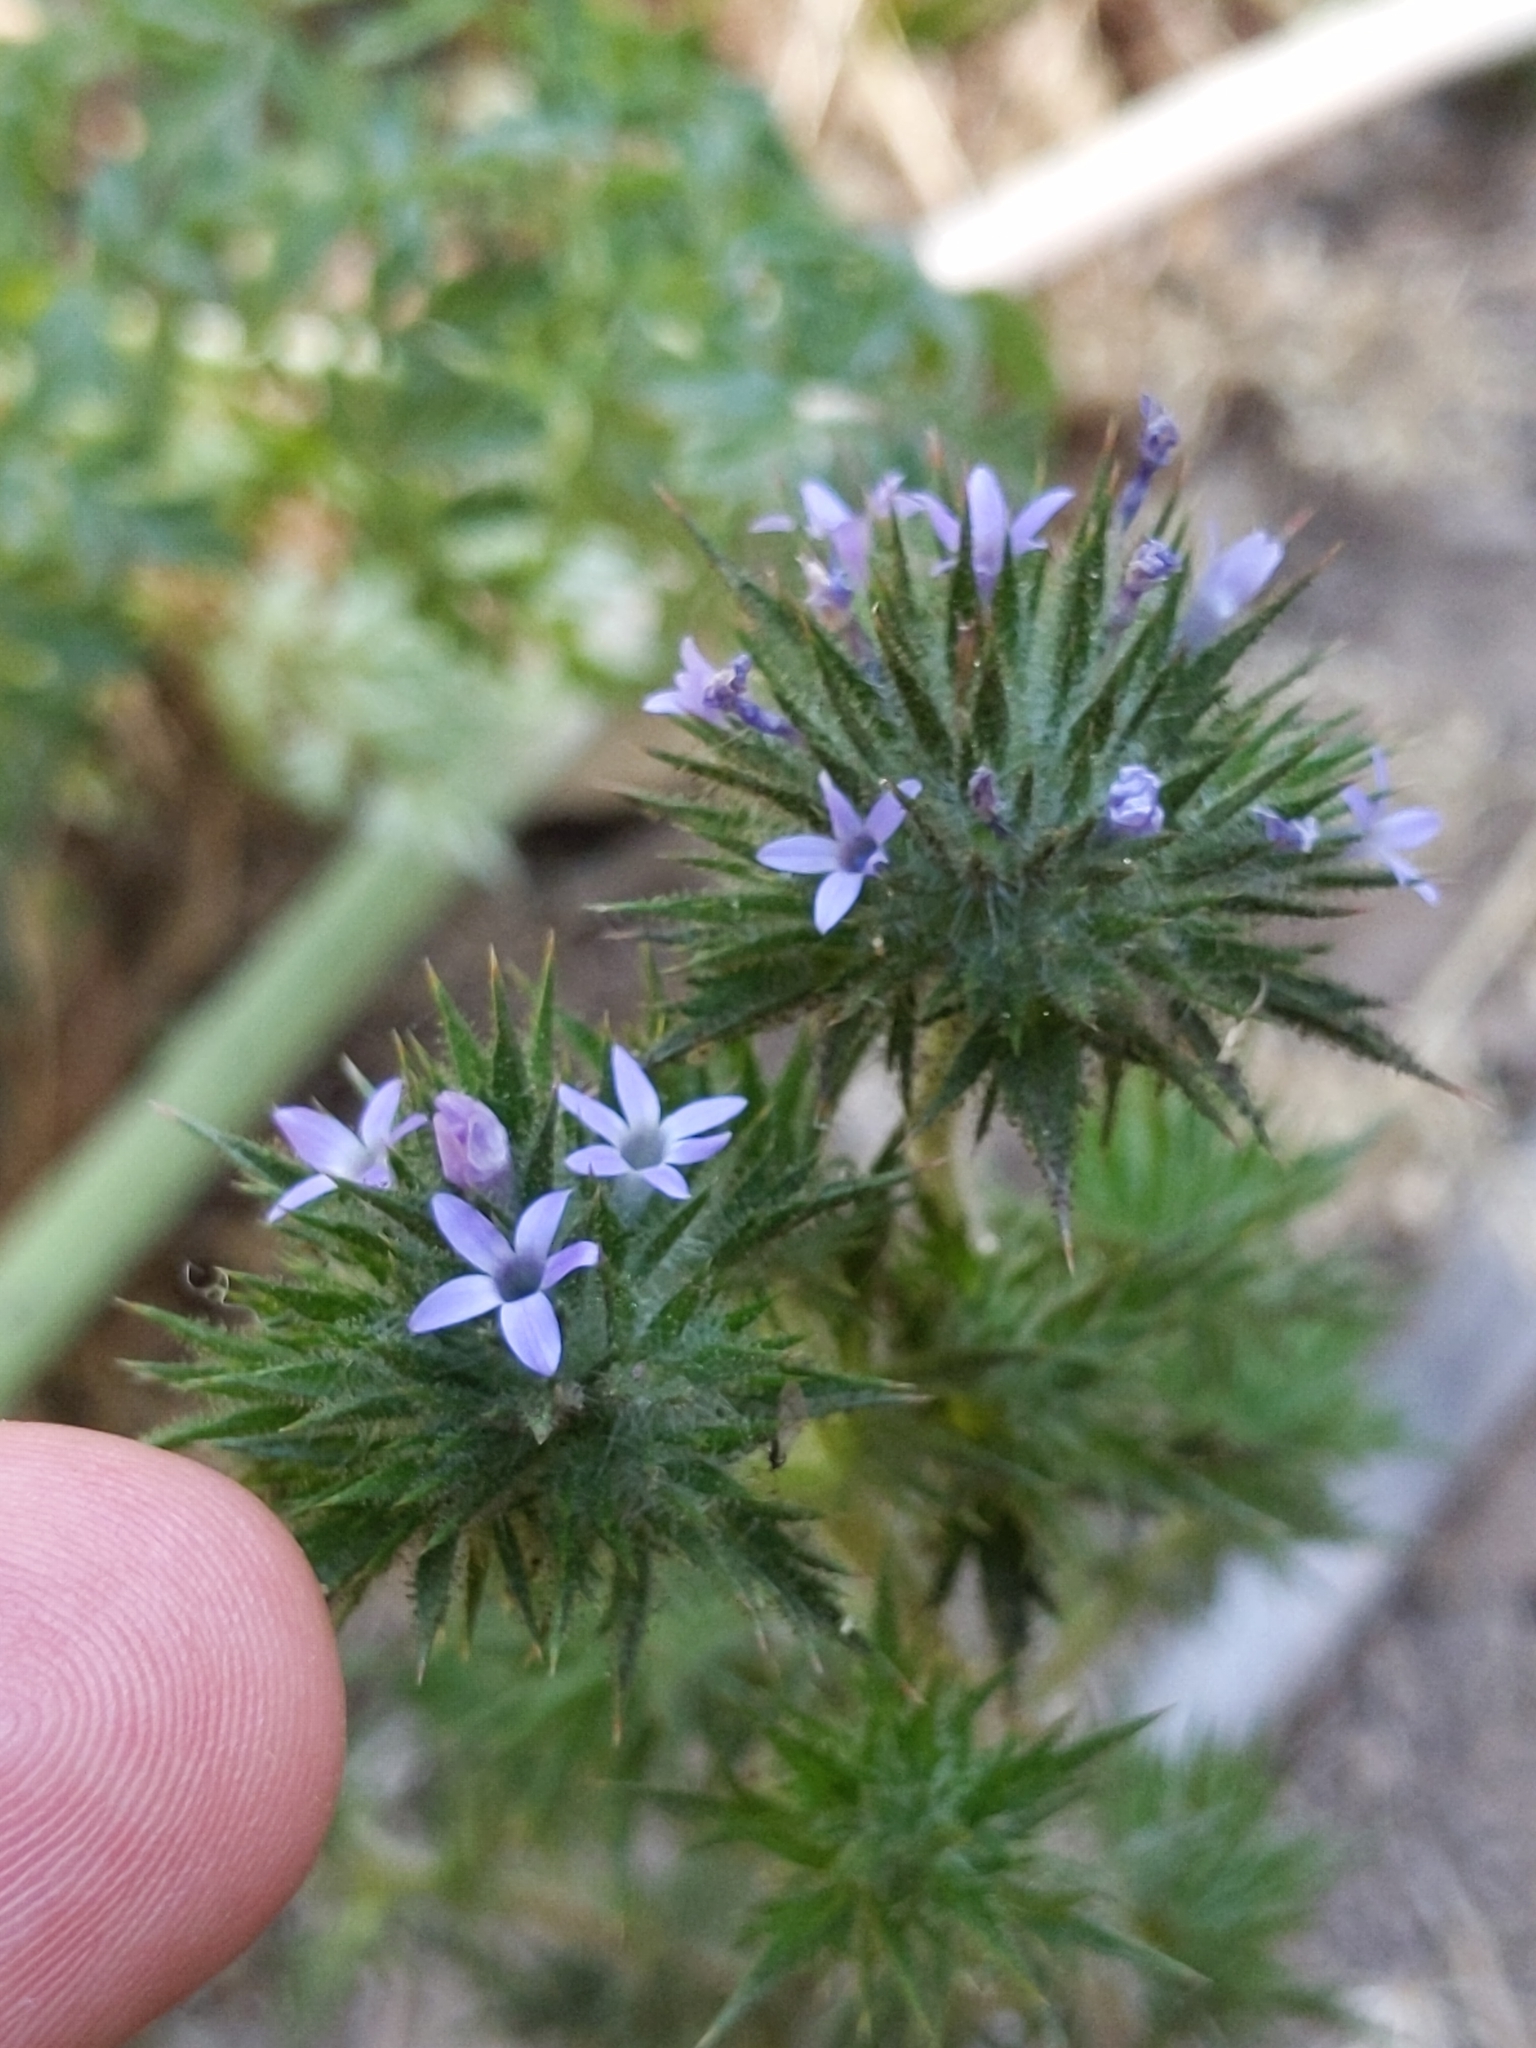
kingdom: Plantae
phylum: Tracheophyta
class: Magnoliopsida
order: Ericales
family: Polemoniaceae
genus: Navarretia
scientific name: Navarretia squarrosa
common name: Skunkweed
